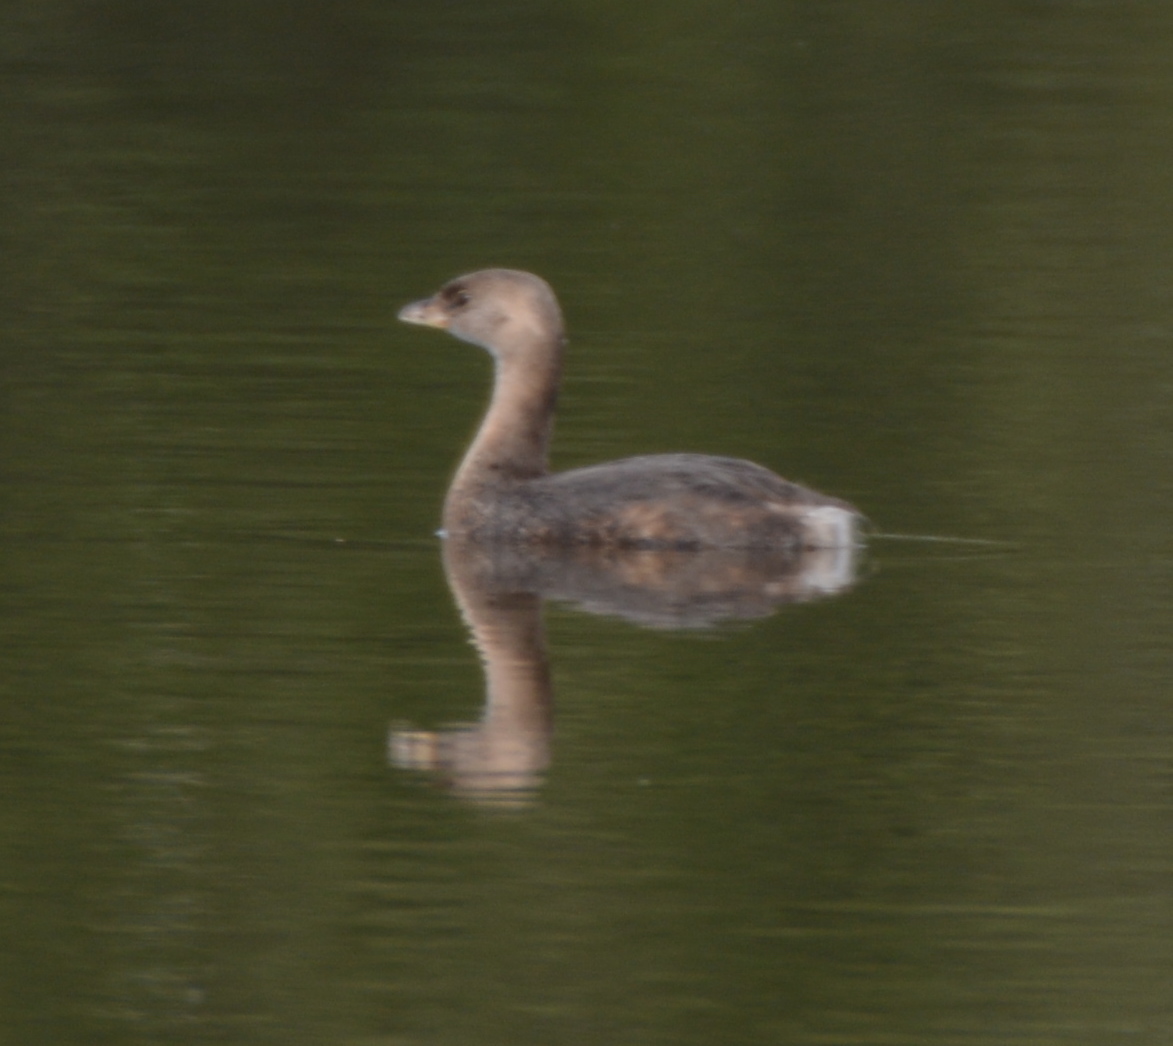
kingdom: Animalia
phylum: Chordata
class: Aves
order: Podicipediformes
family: Podicipedidae
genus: Podilymbus
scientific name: Podilymbus podiceps
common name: Pied-billed grebe
